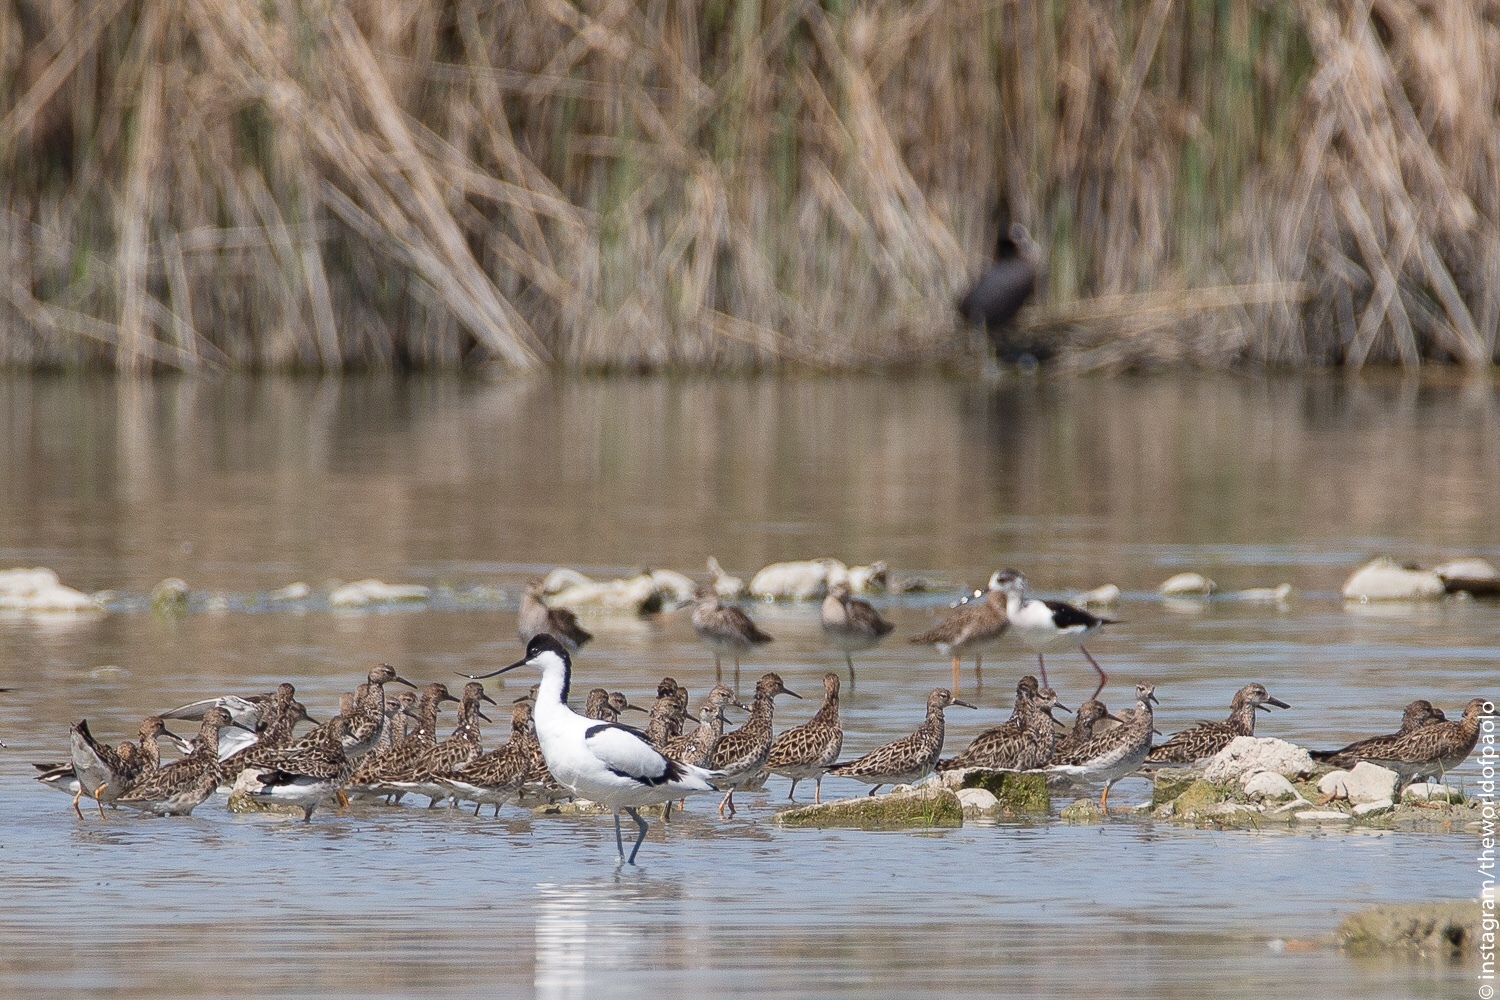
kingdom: Animalia
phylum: Chordata
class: Aves
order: Charadriiformes
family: Scolopacidae
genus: Calidris
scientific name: Calidris pugnax
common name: Ruff
